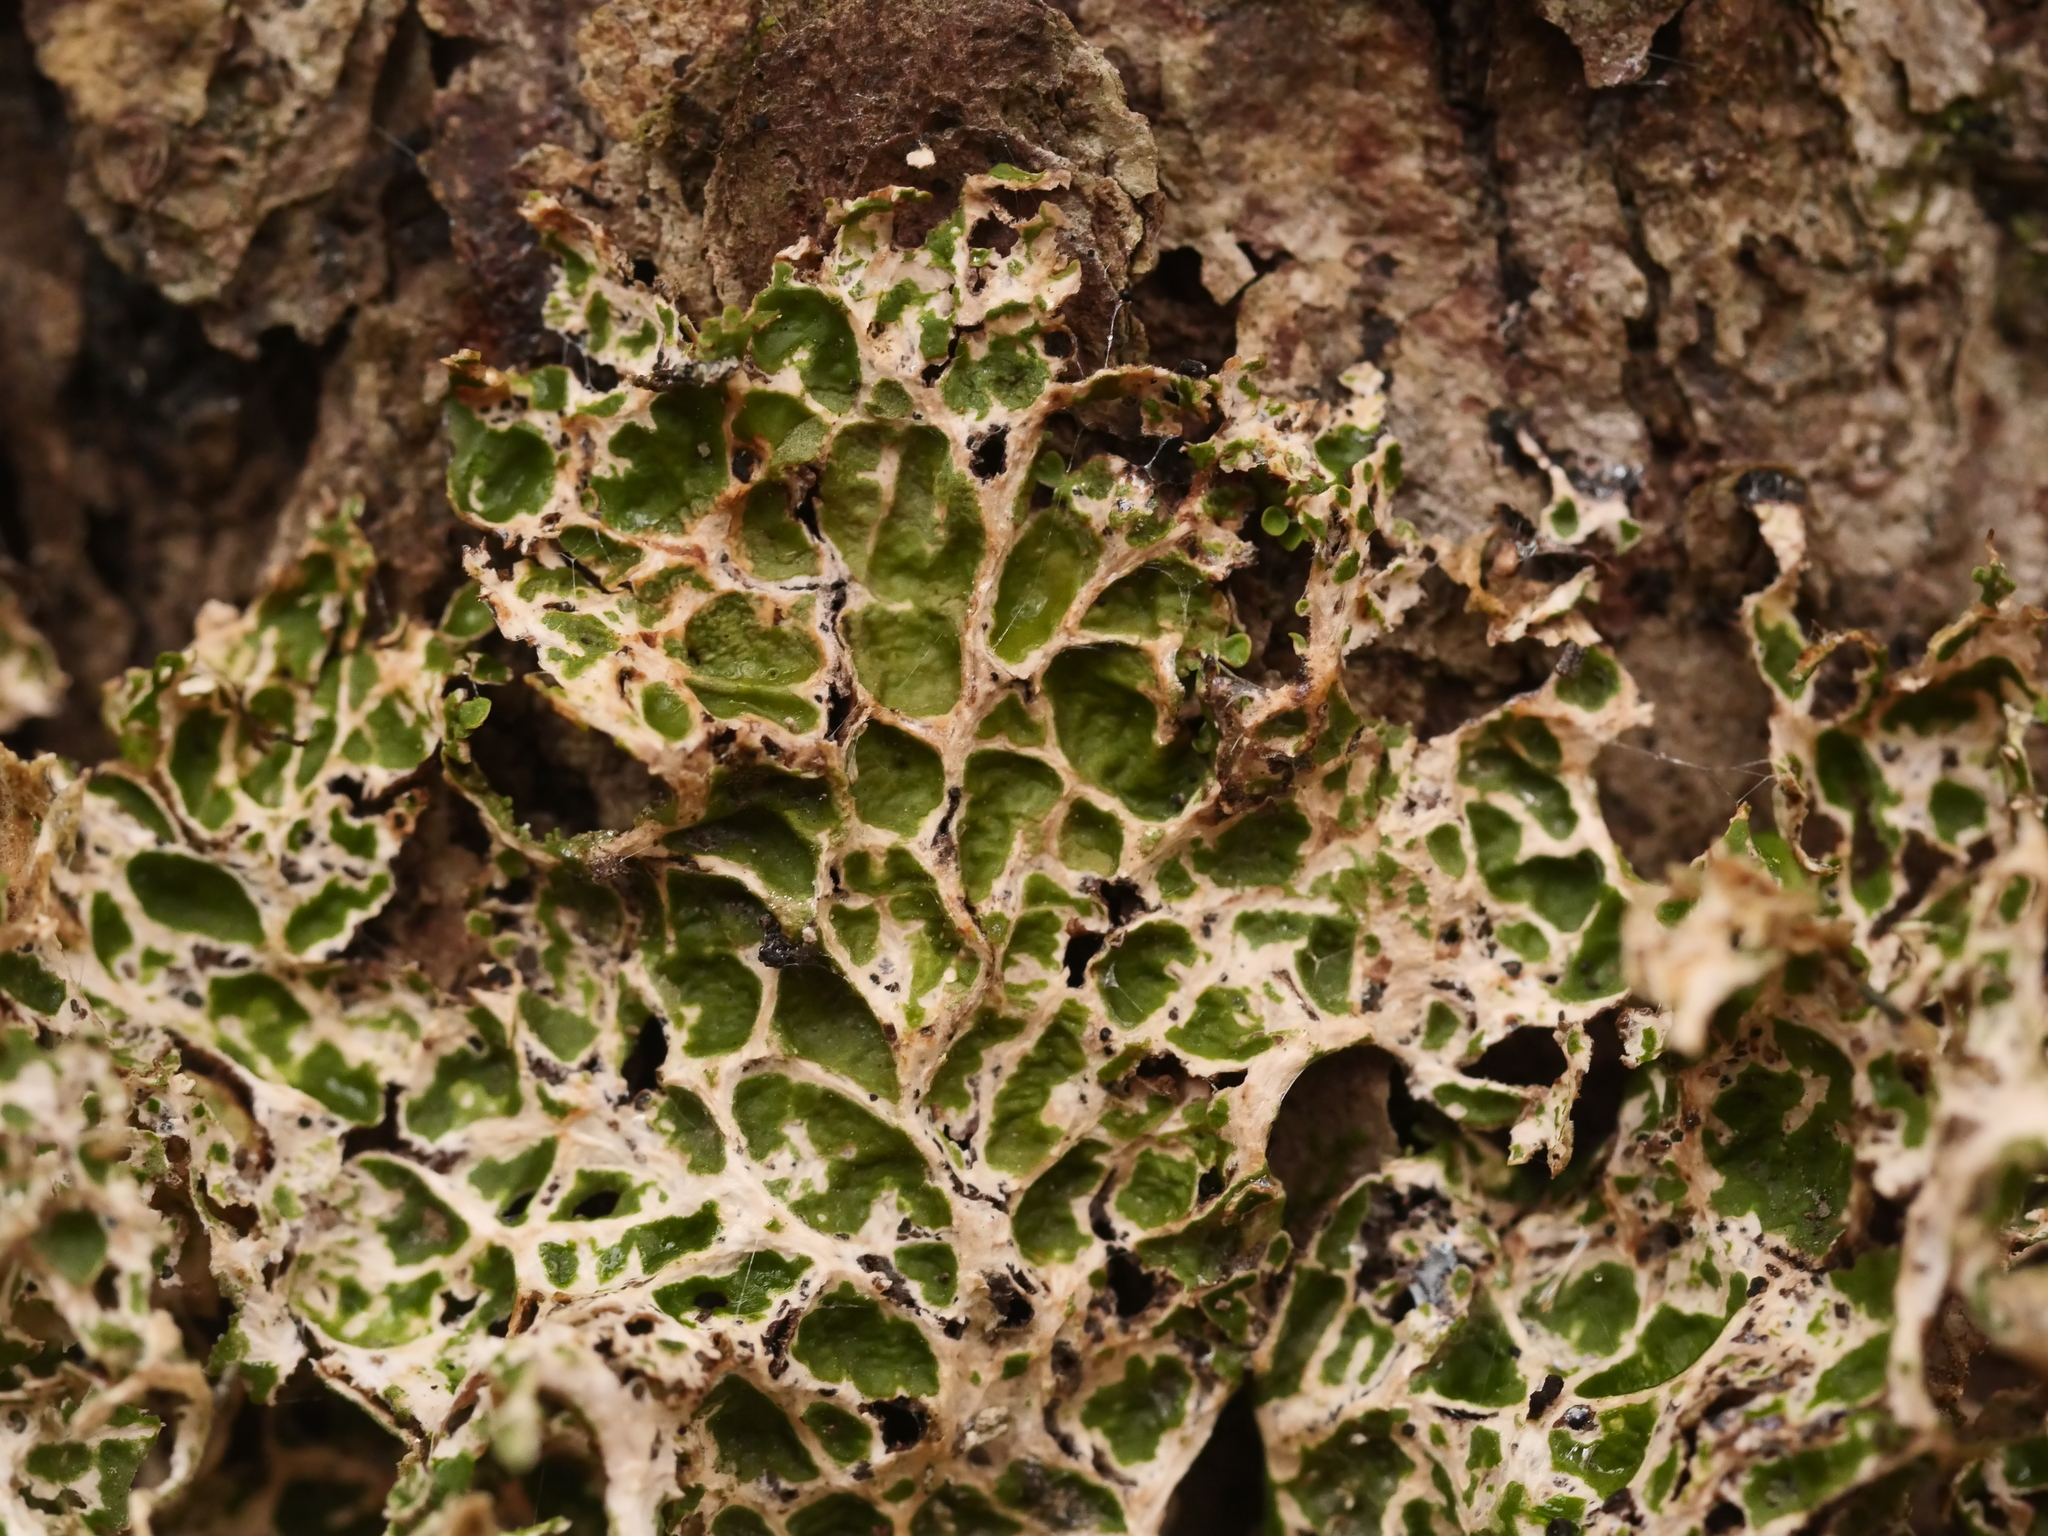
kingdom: Fungi
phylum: Ascomycota
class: Lecanoromycetes
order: Peltigerales
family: Lobariaceae
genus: Lobaria
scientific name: Lobaria pulmonaria
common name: Lungwort
